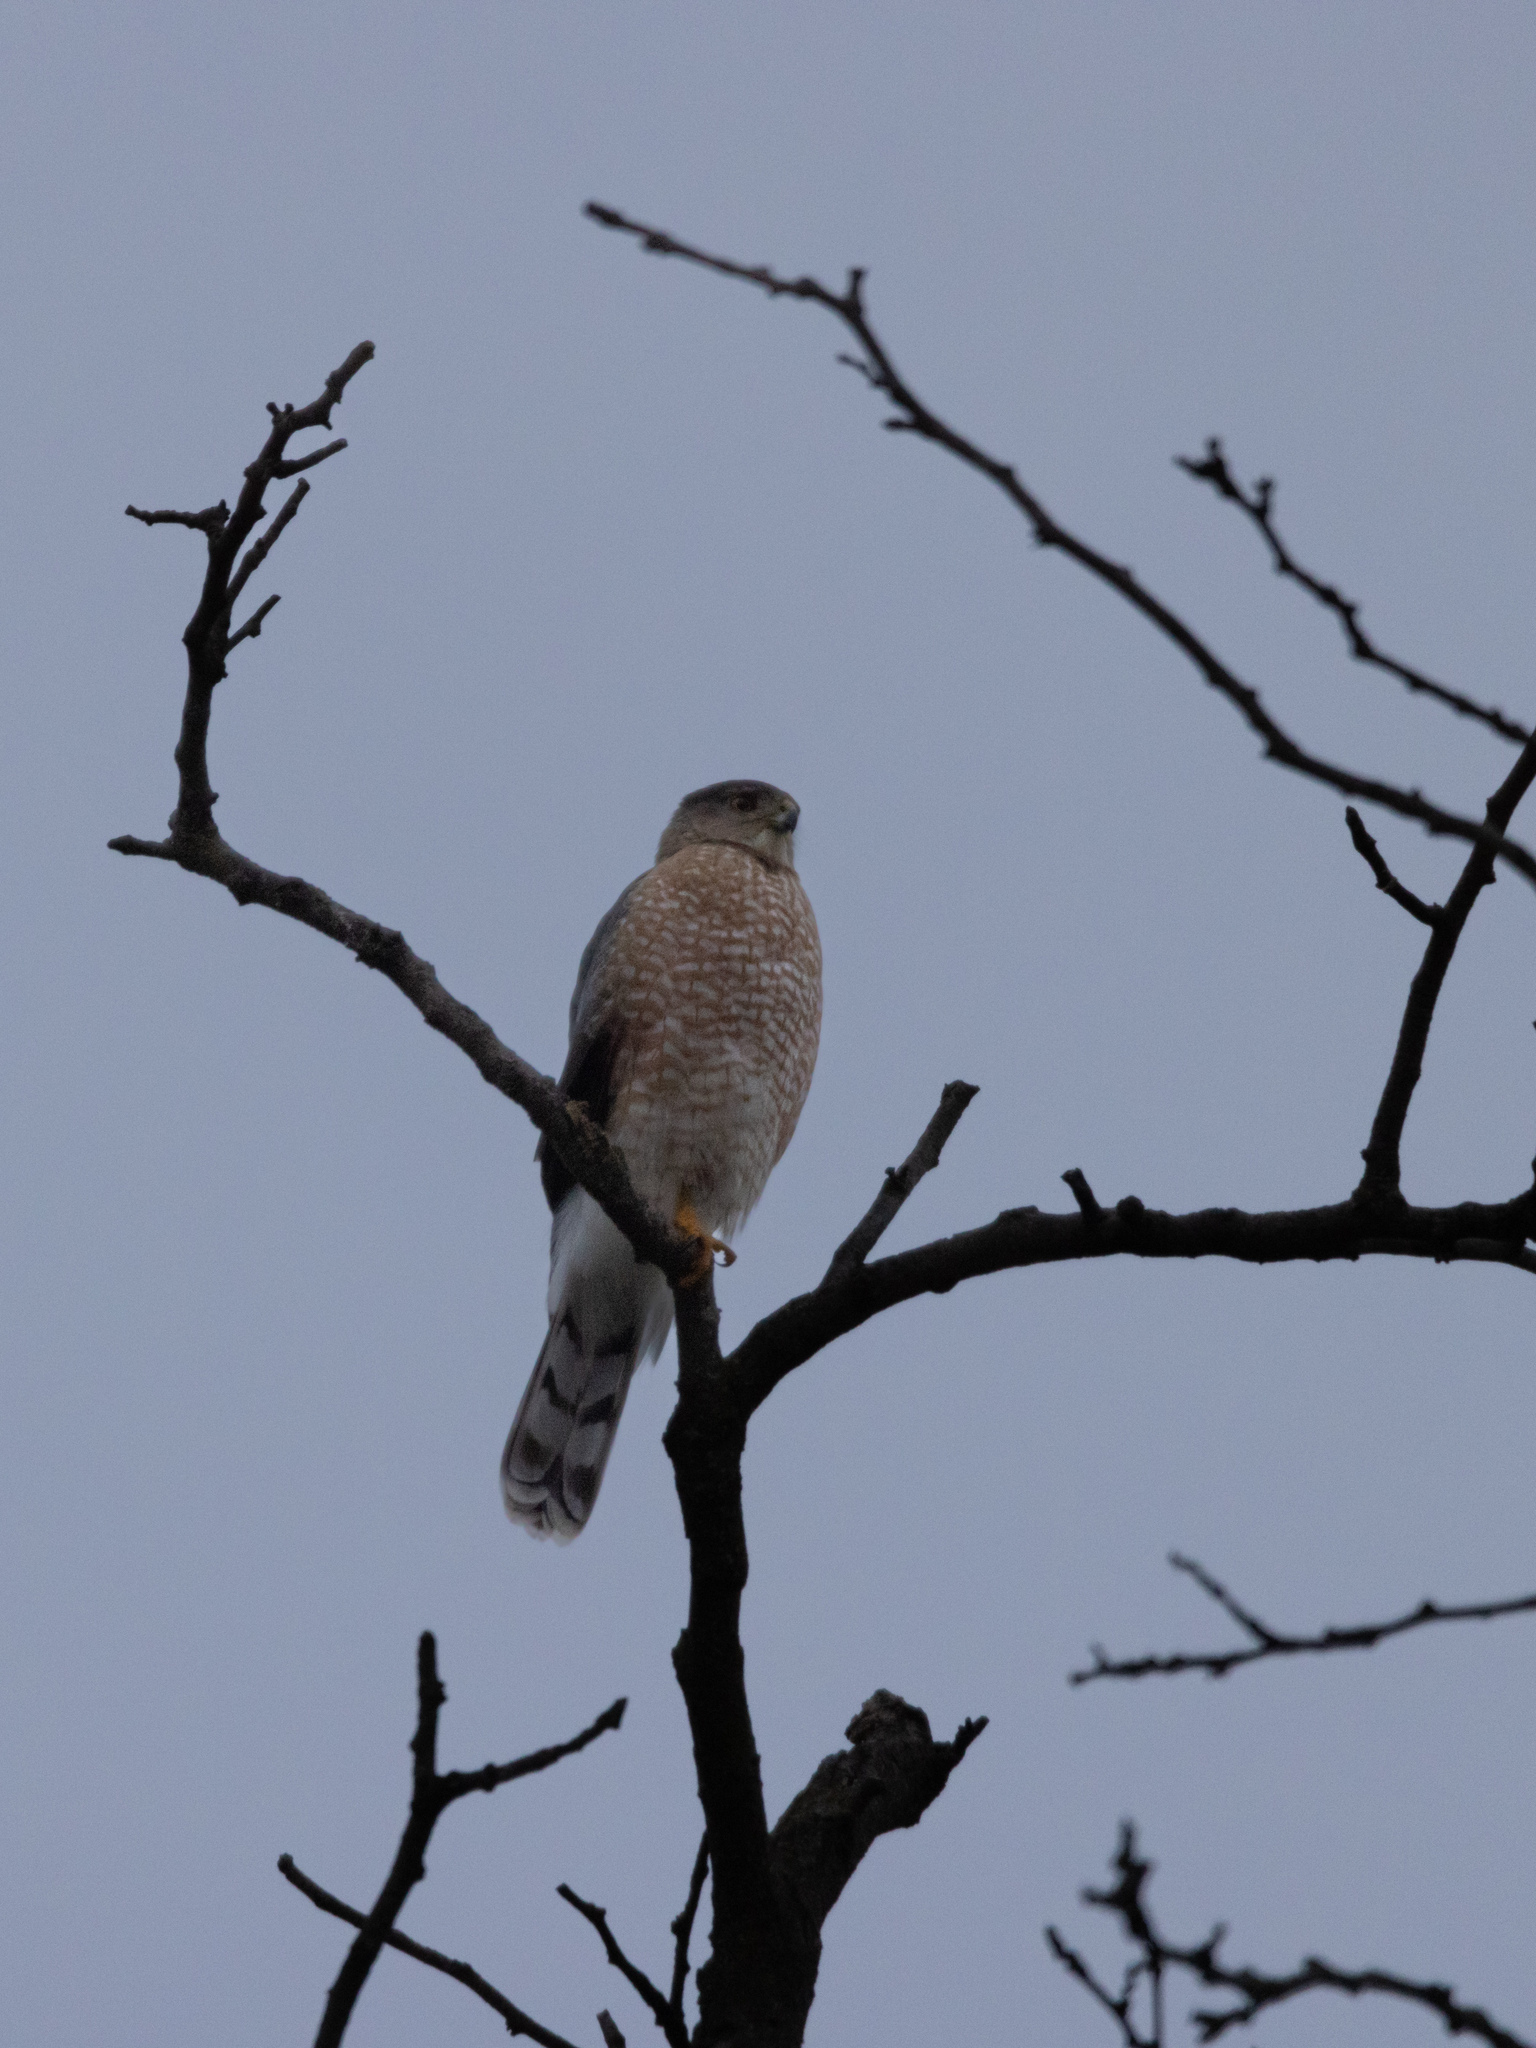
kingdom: Animalia
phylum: Chordata
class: Aves
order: Accipitriformes
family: Accipitridae
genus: Accipiter
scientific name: Accipiter cooperii
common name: Cooper's hawk
